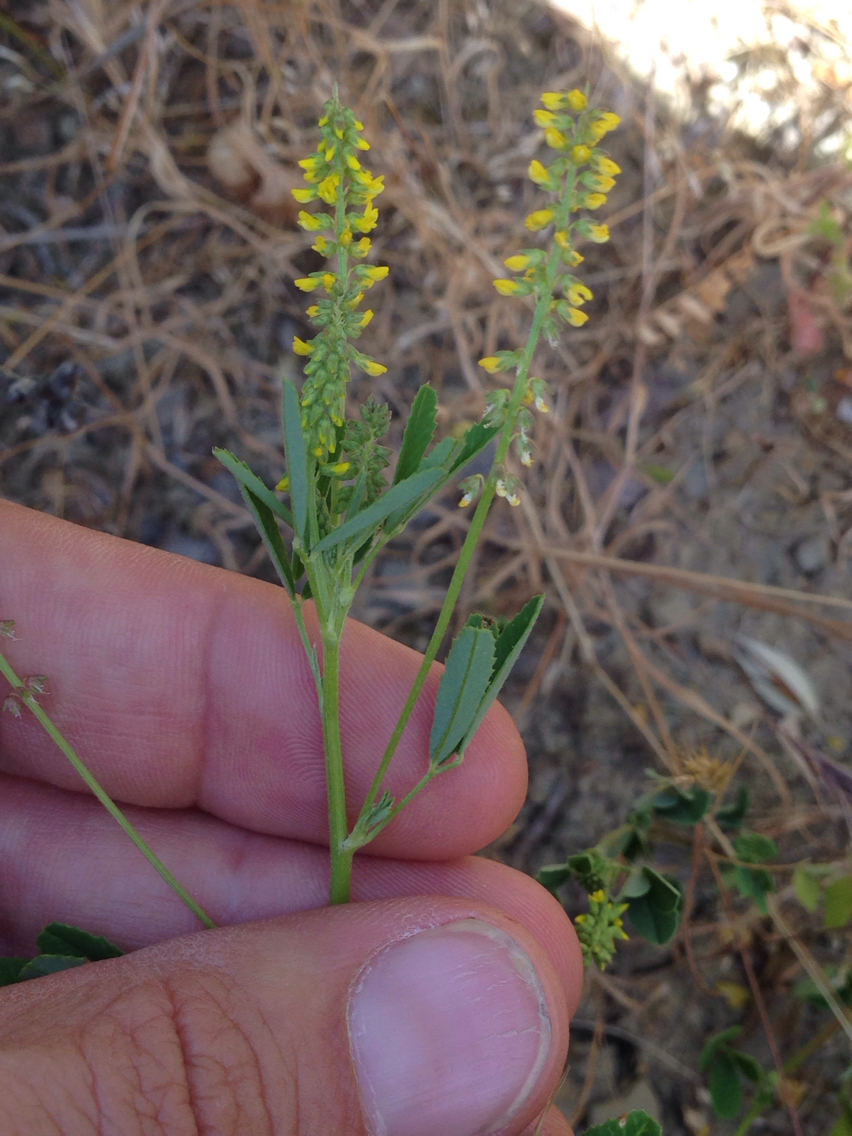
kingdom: Plantae
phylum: Tracheophyta
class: Magnoliopsida
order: Fabales
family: Fabaceae
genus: Melilotus
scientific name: Melilotus indicus
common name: Small melilot
